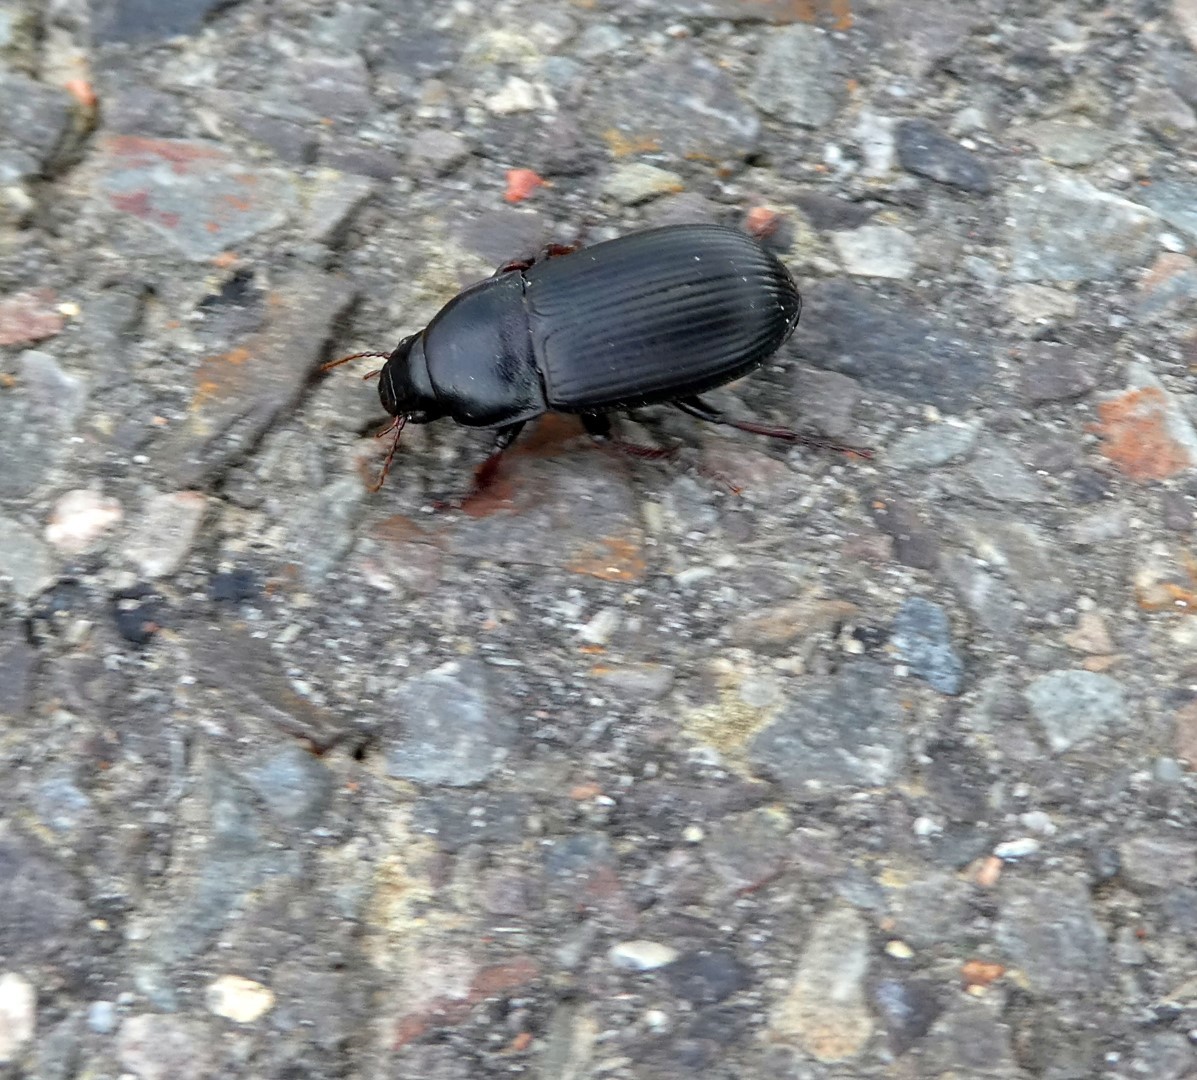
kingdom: Animalia
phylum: Arthropoda
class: Insecta
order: Coleoptera
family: Carabidae
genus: Zabrus
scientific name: Zabrus tenebrioides
